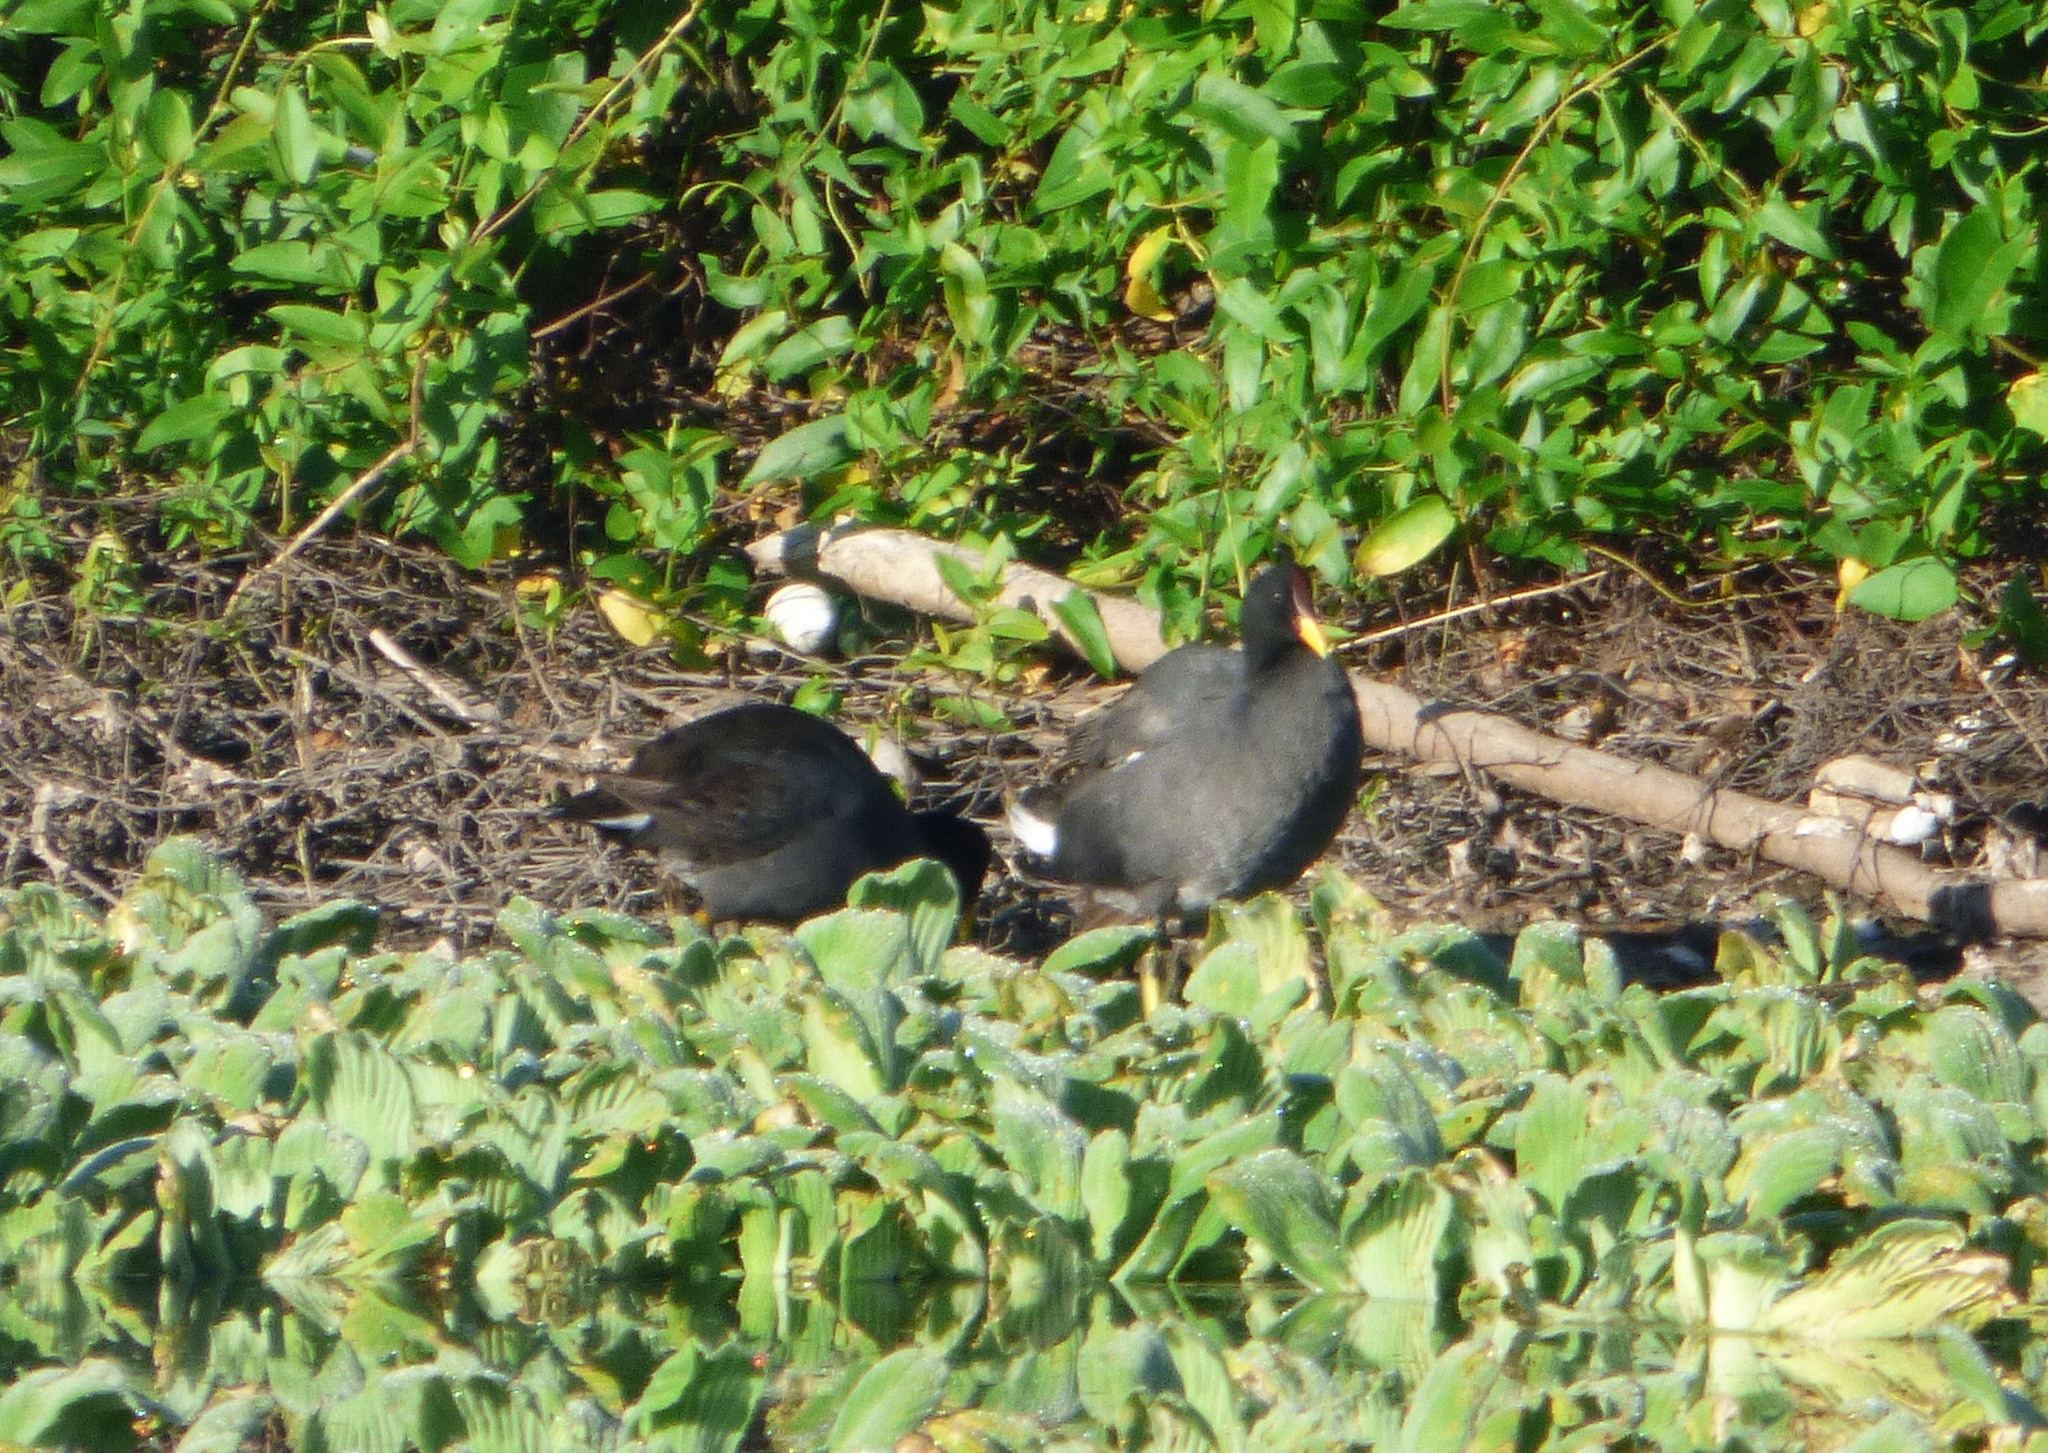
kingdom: Animalia
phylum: Chordata
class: Aves
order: Gruiformes
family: Rallidae
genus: Fulica
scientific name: Fulica rufifrons
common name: Red-fronted coot
